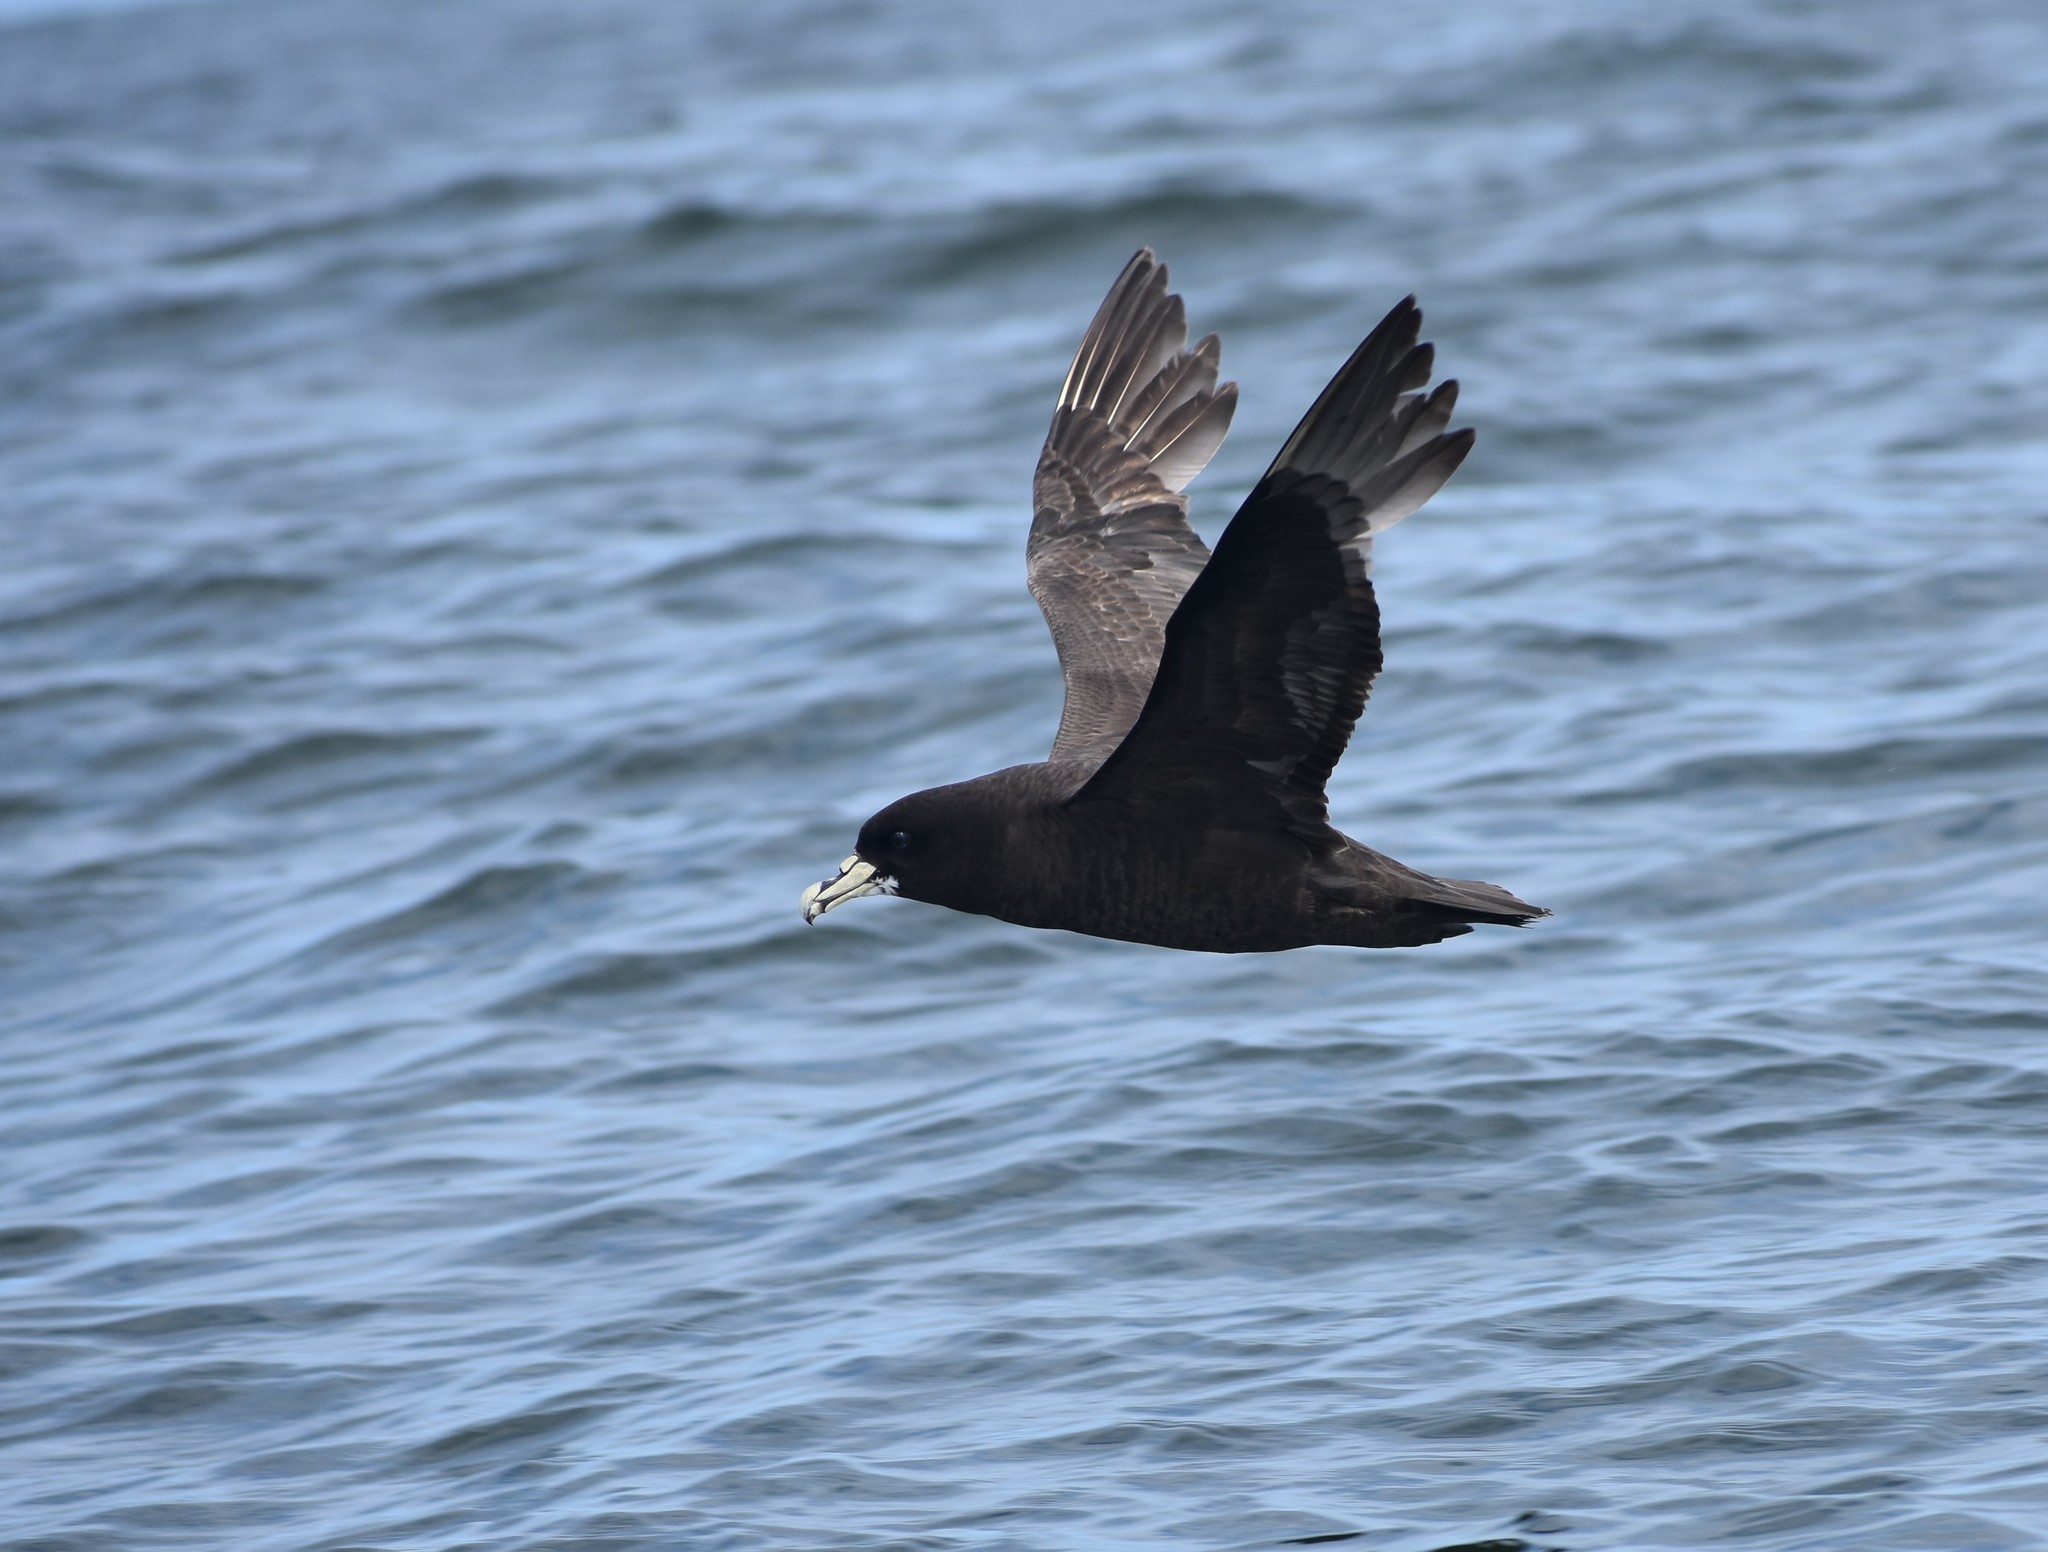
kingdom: Animalia
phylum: Chordata
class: Aves
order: Procellariiformes
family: Procellariidae
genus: Procellaria
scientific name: Procellaria aequinoctialis
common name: White-chinned petrel
